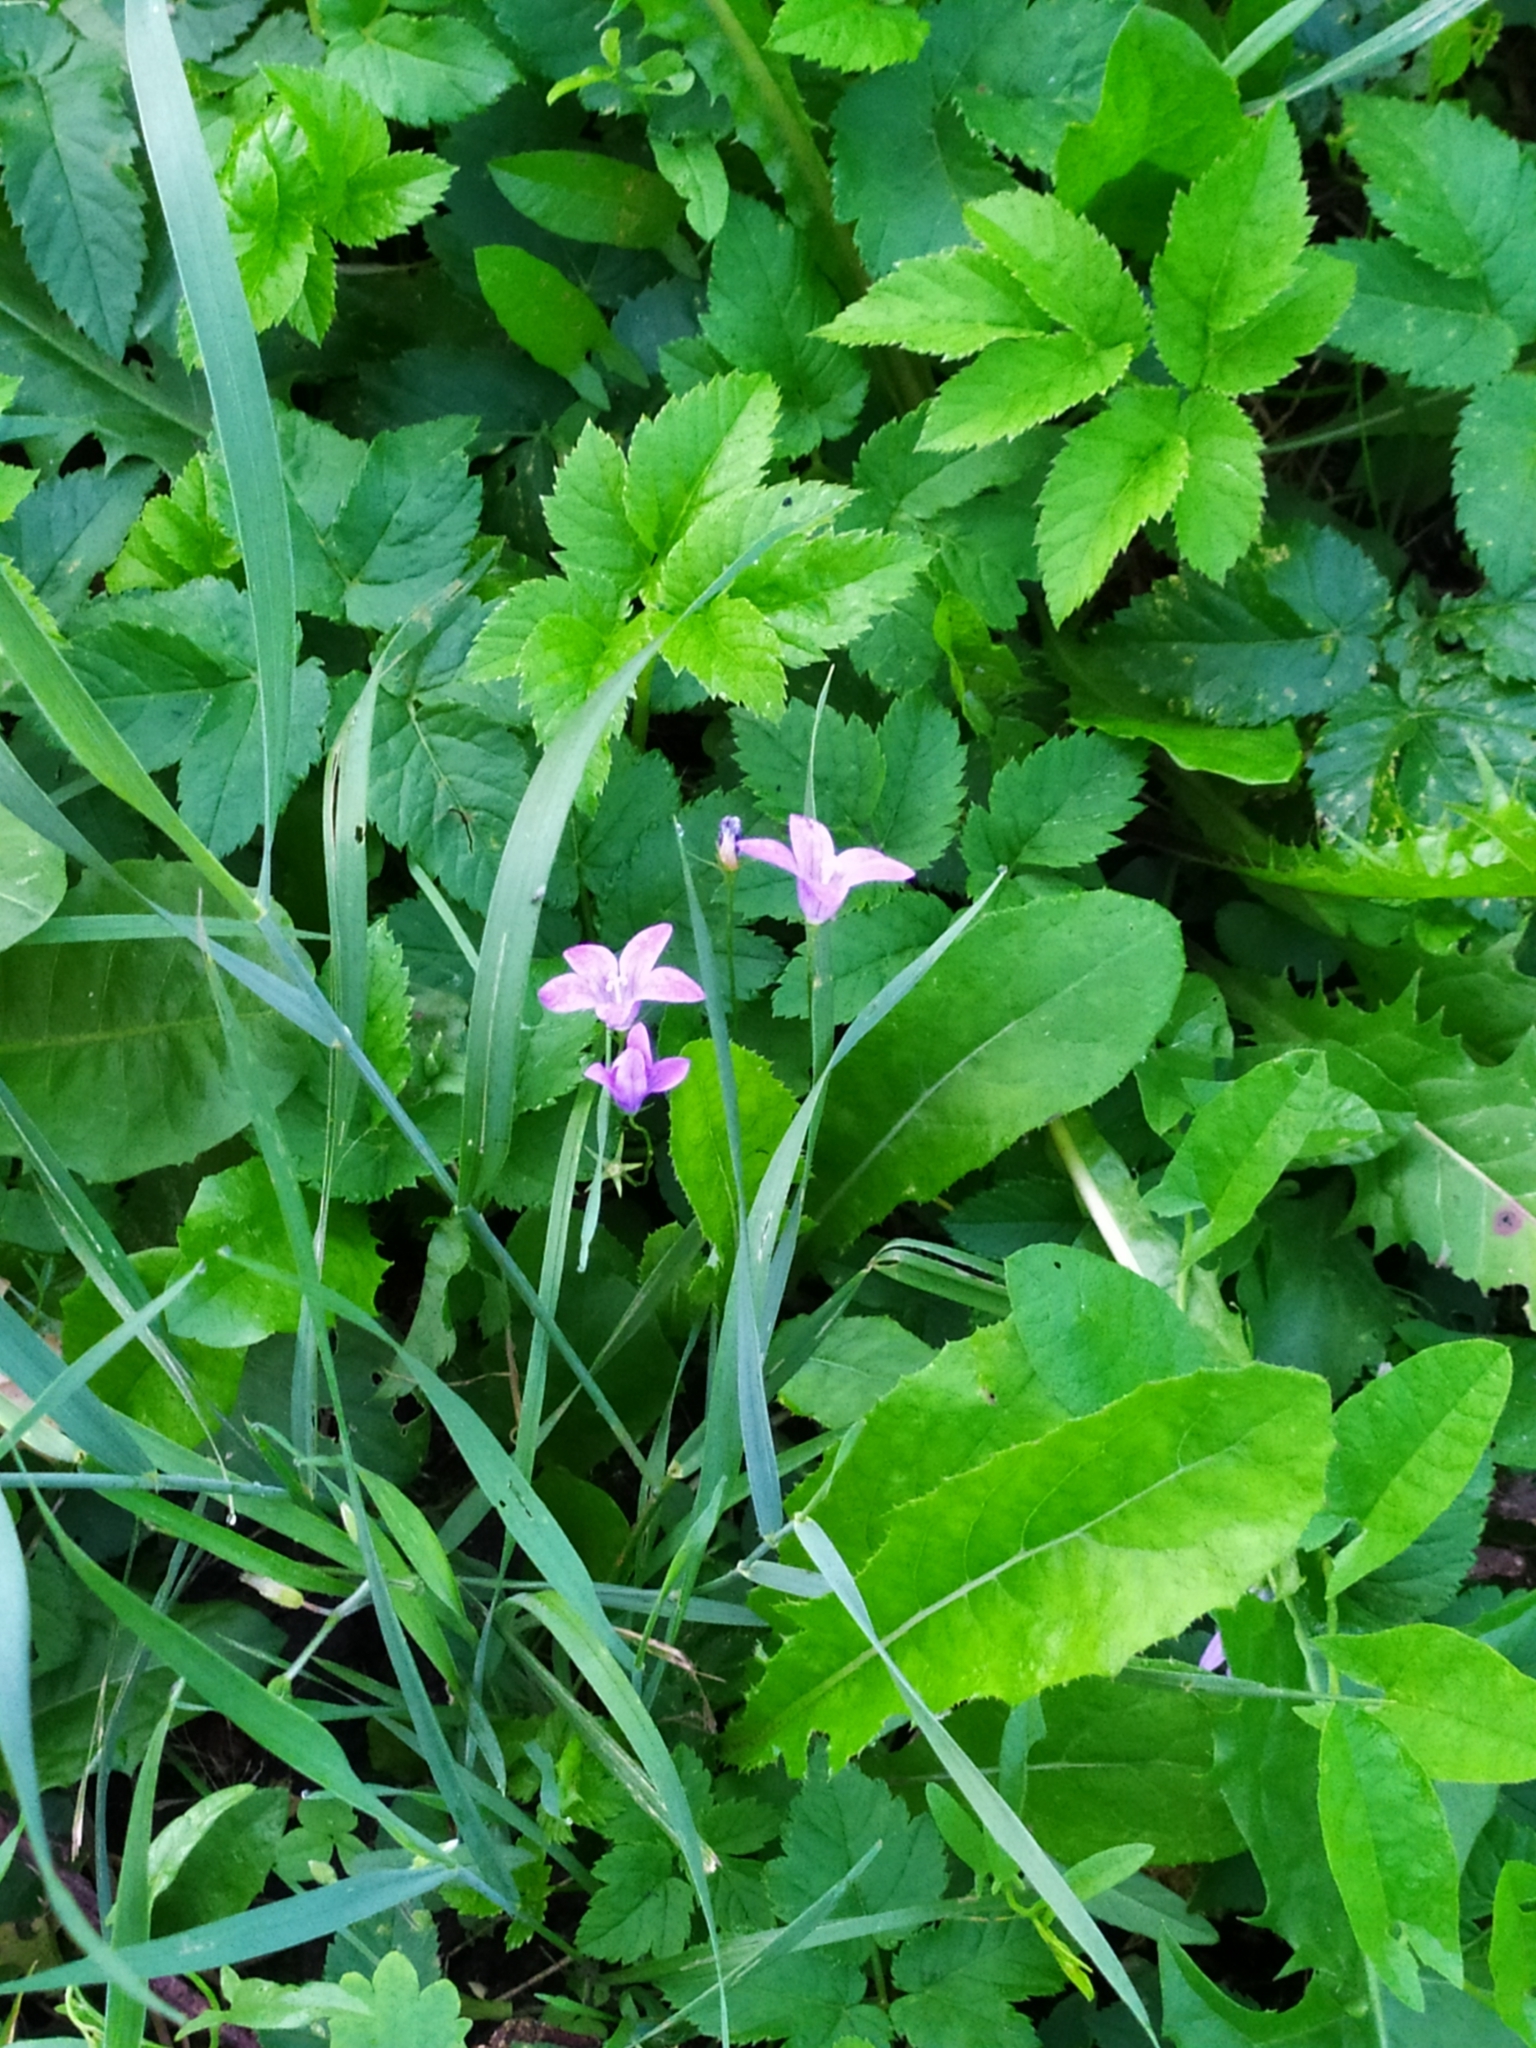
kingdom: Plantae
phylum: Tracheophyta
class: Magnoliopsida
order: Asterales
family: Campanulaceae
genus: Campanula
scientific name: Campanula patula
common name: Spreading bellflower
